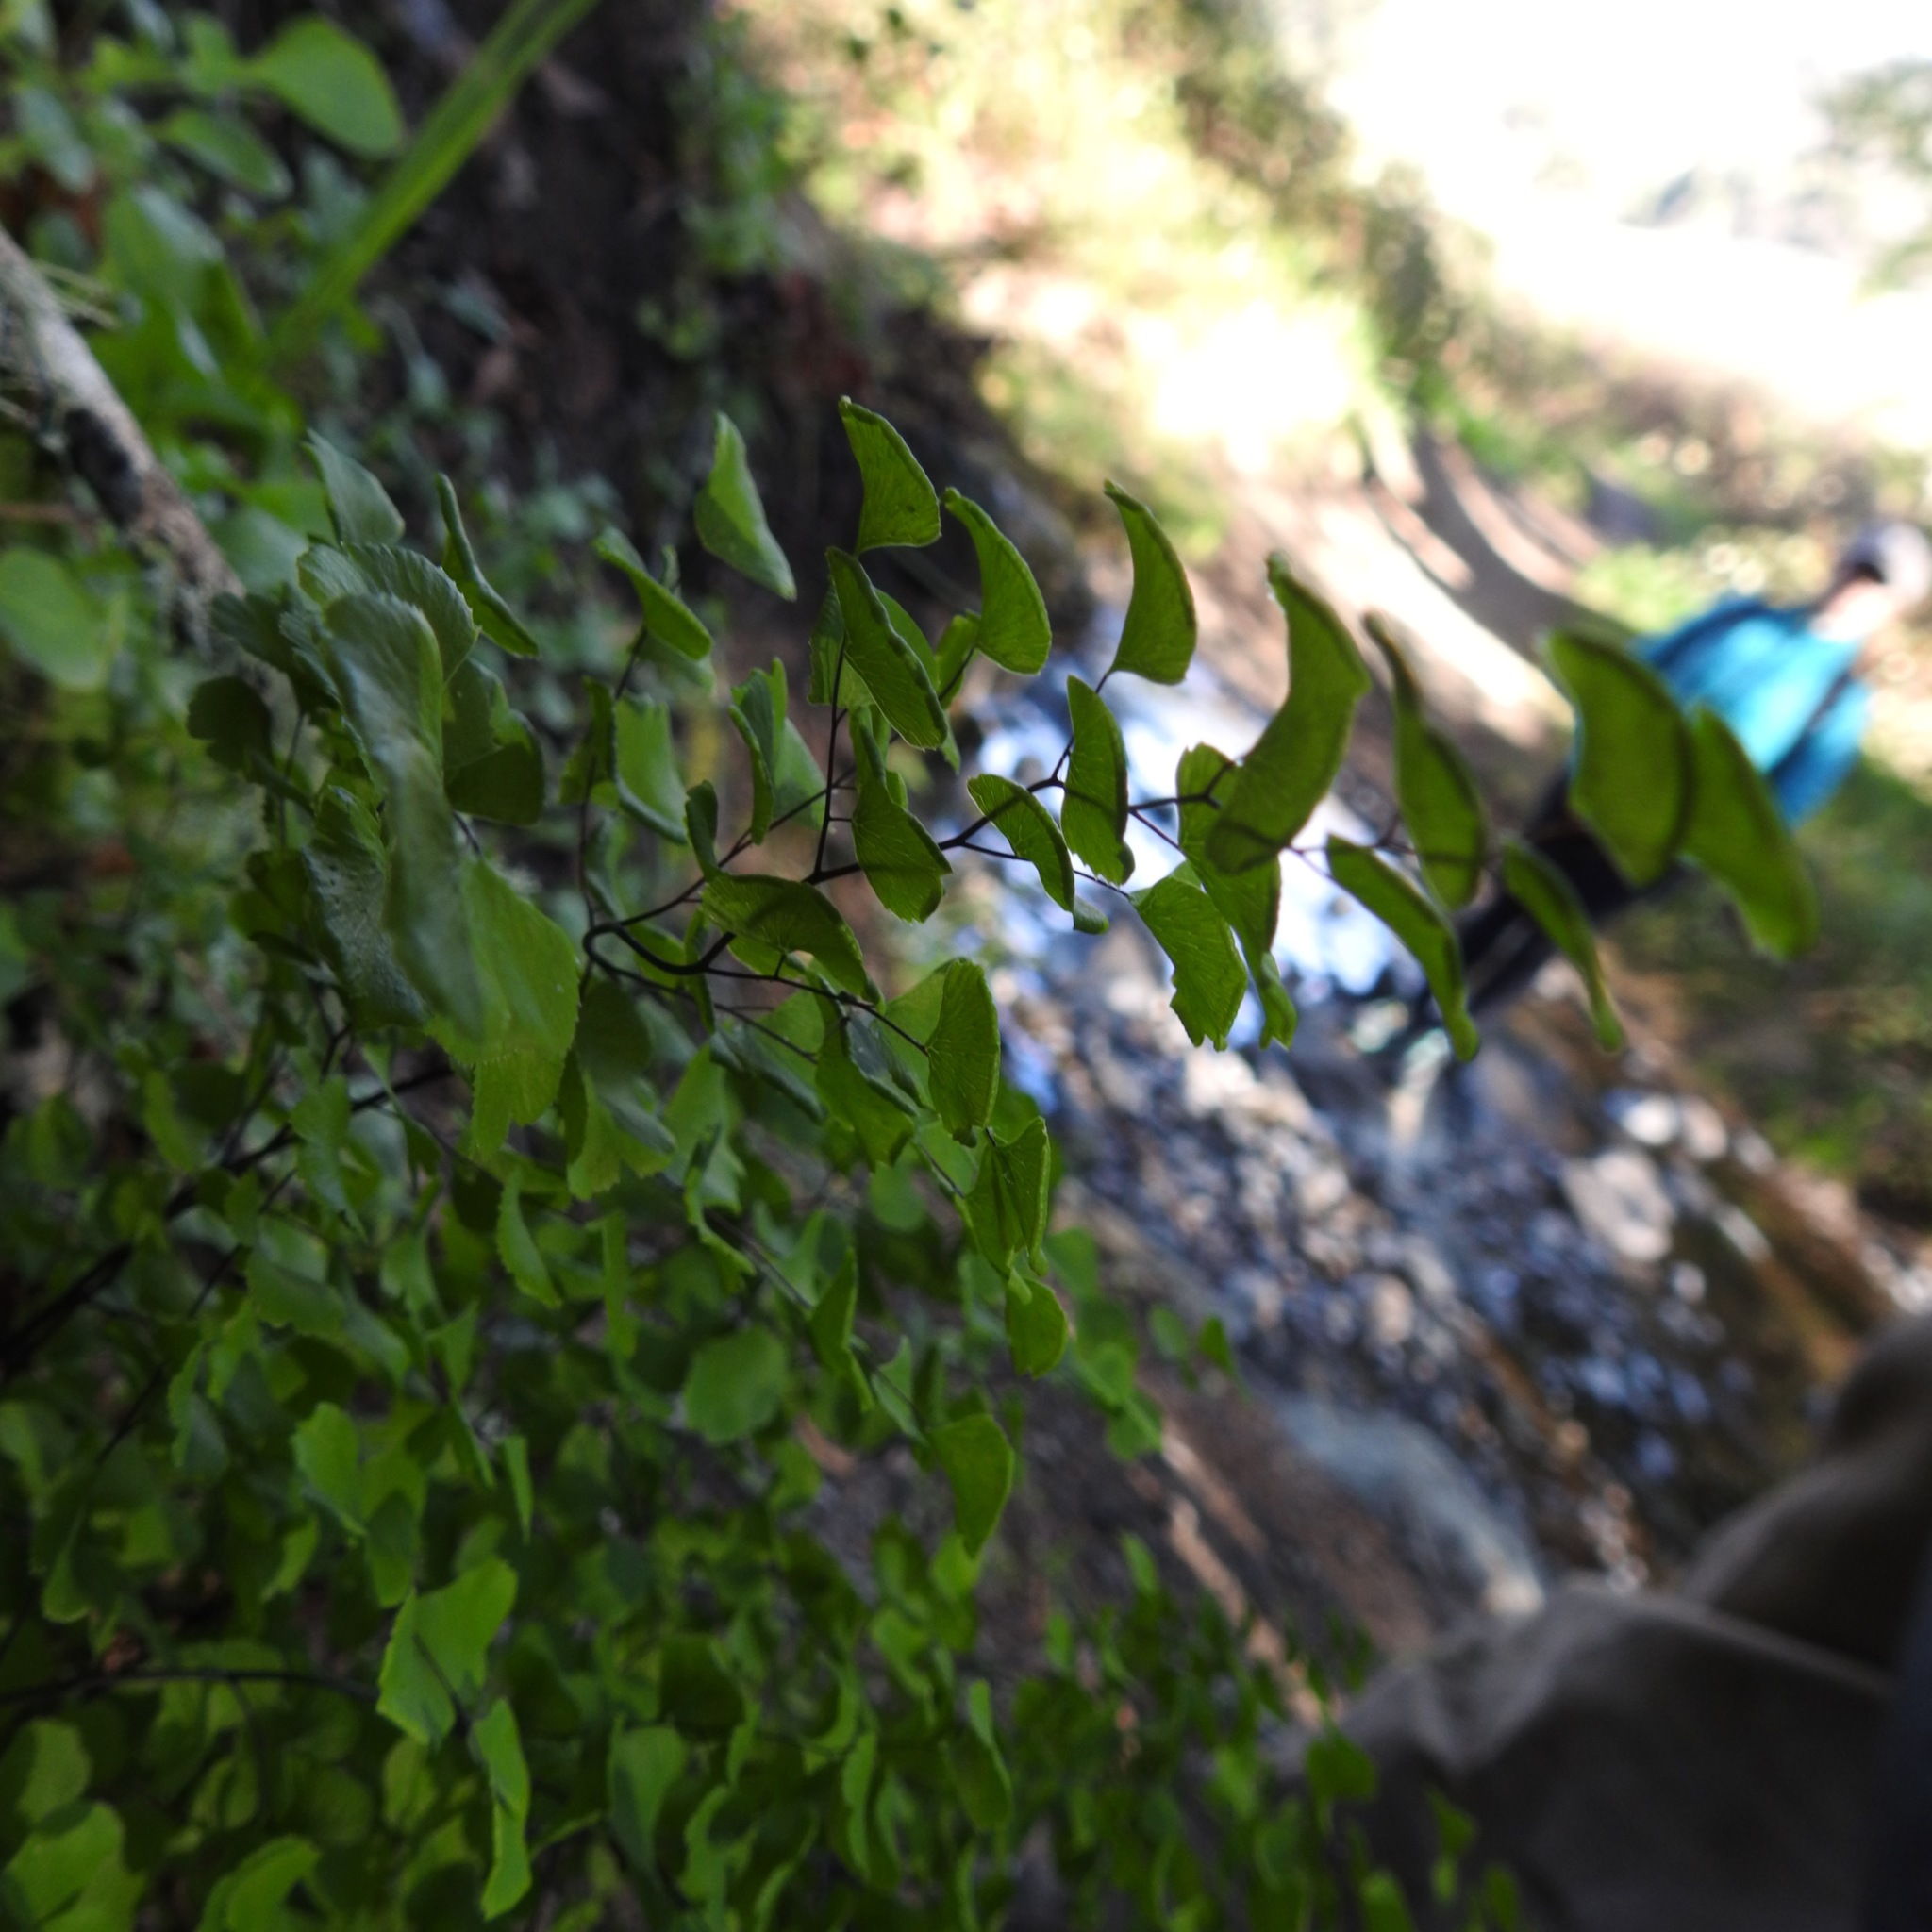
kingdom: Plantae
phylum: Tracheophyta
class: Polypodiopsida
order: Polypodiales
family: Pteridaceae
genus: Adiantum
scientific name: Adiantum jordanii
